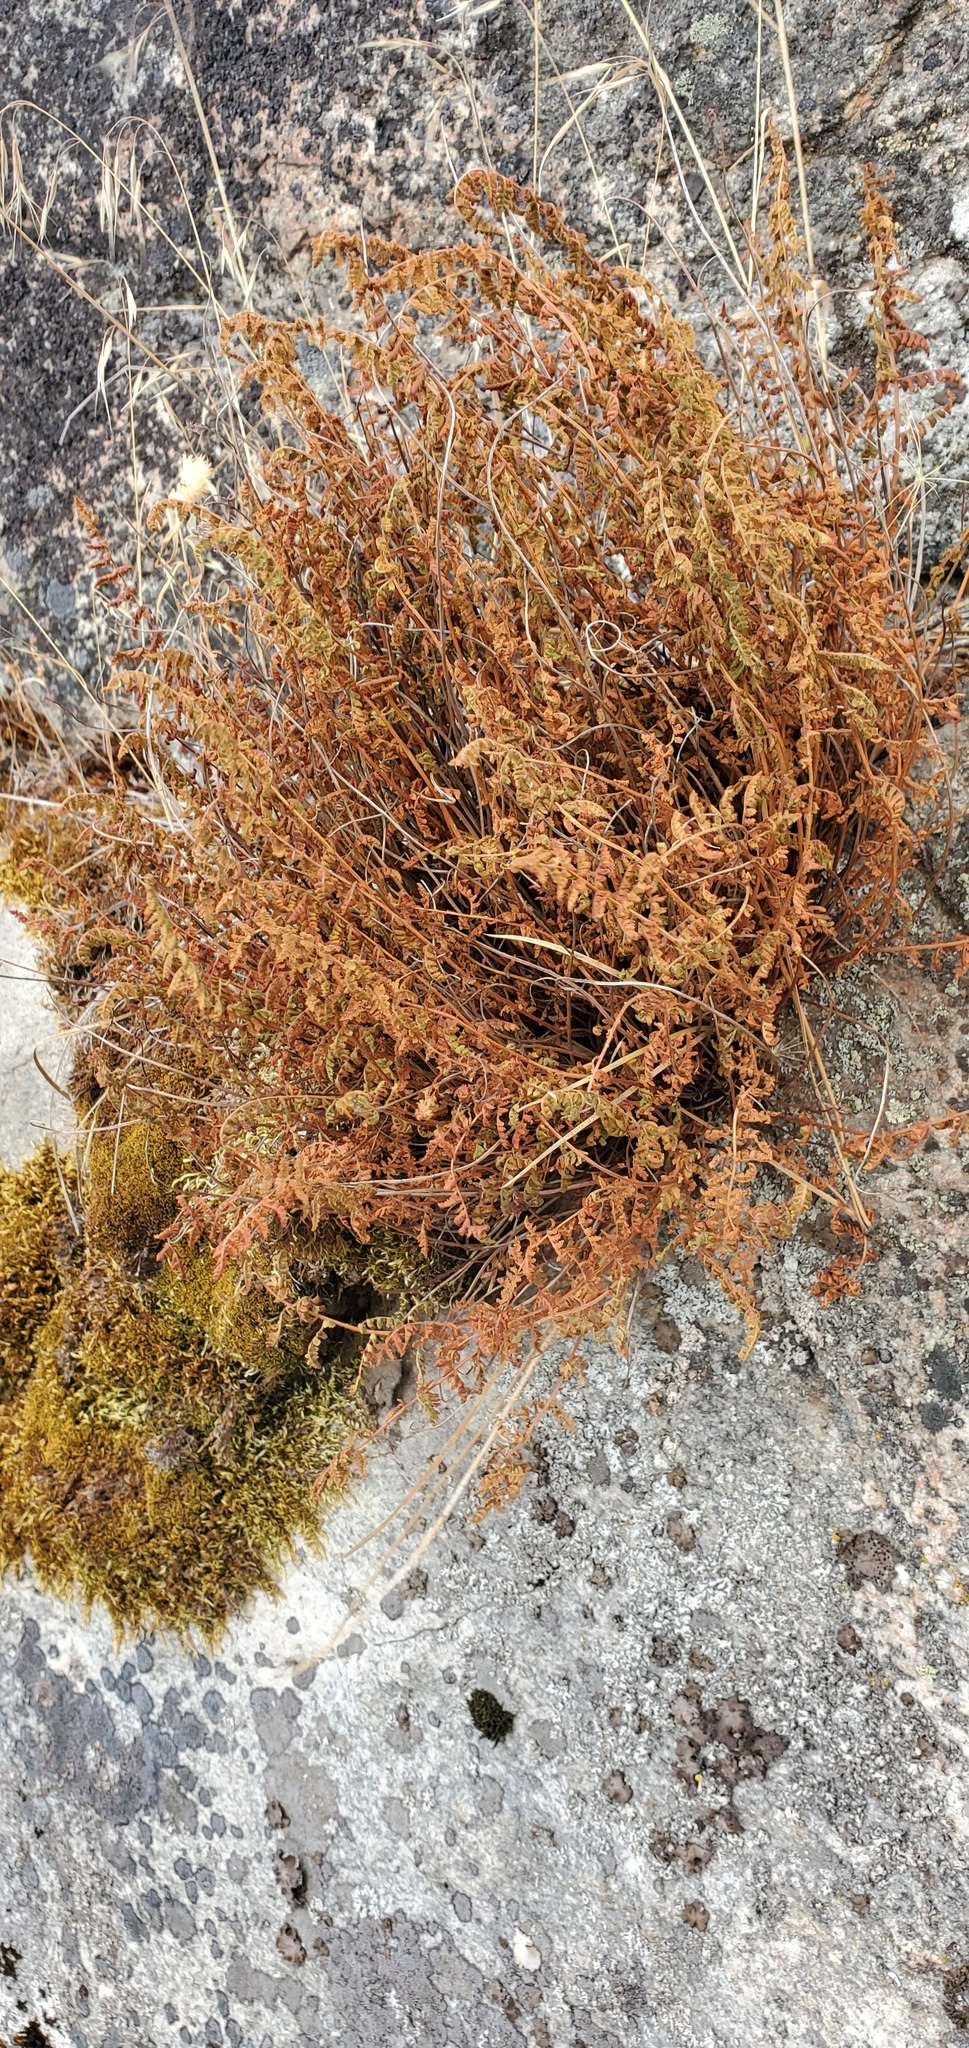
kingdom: Plantae
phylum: Tracheophyta
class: Polypodiopsida
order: Polypodiales
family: Woodsiaceae
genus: Physematium
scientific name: Physematium scopulinum
